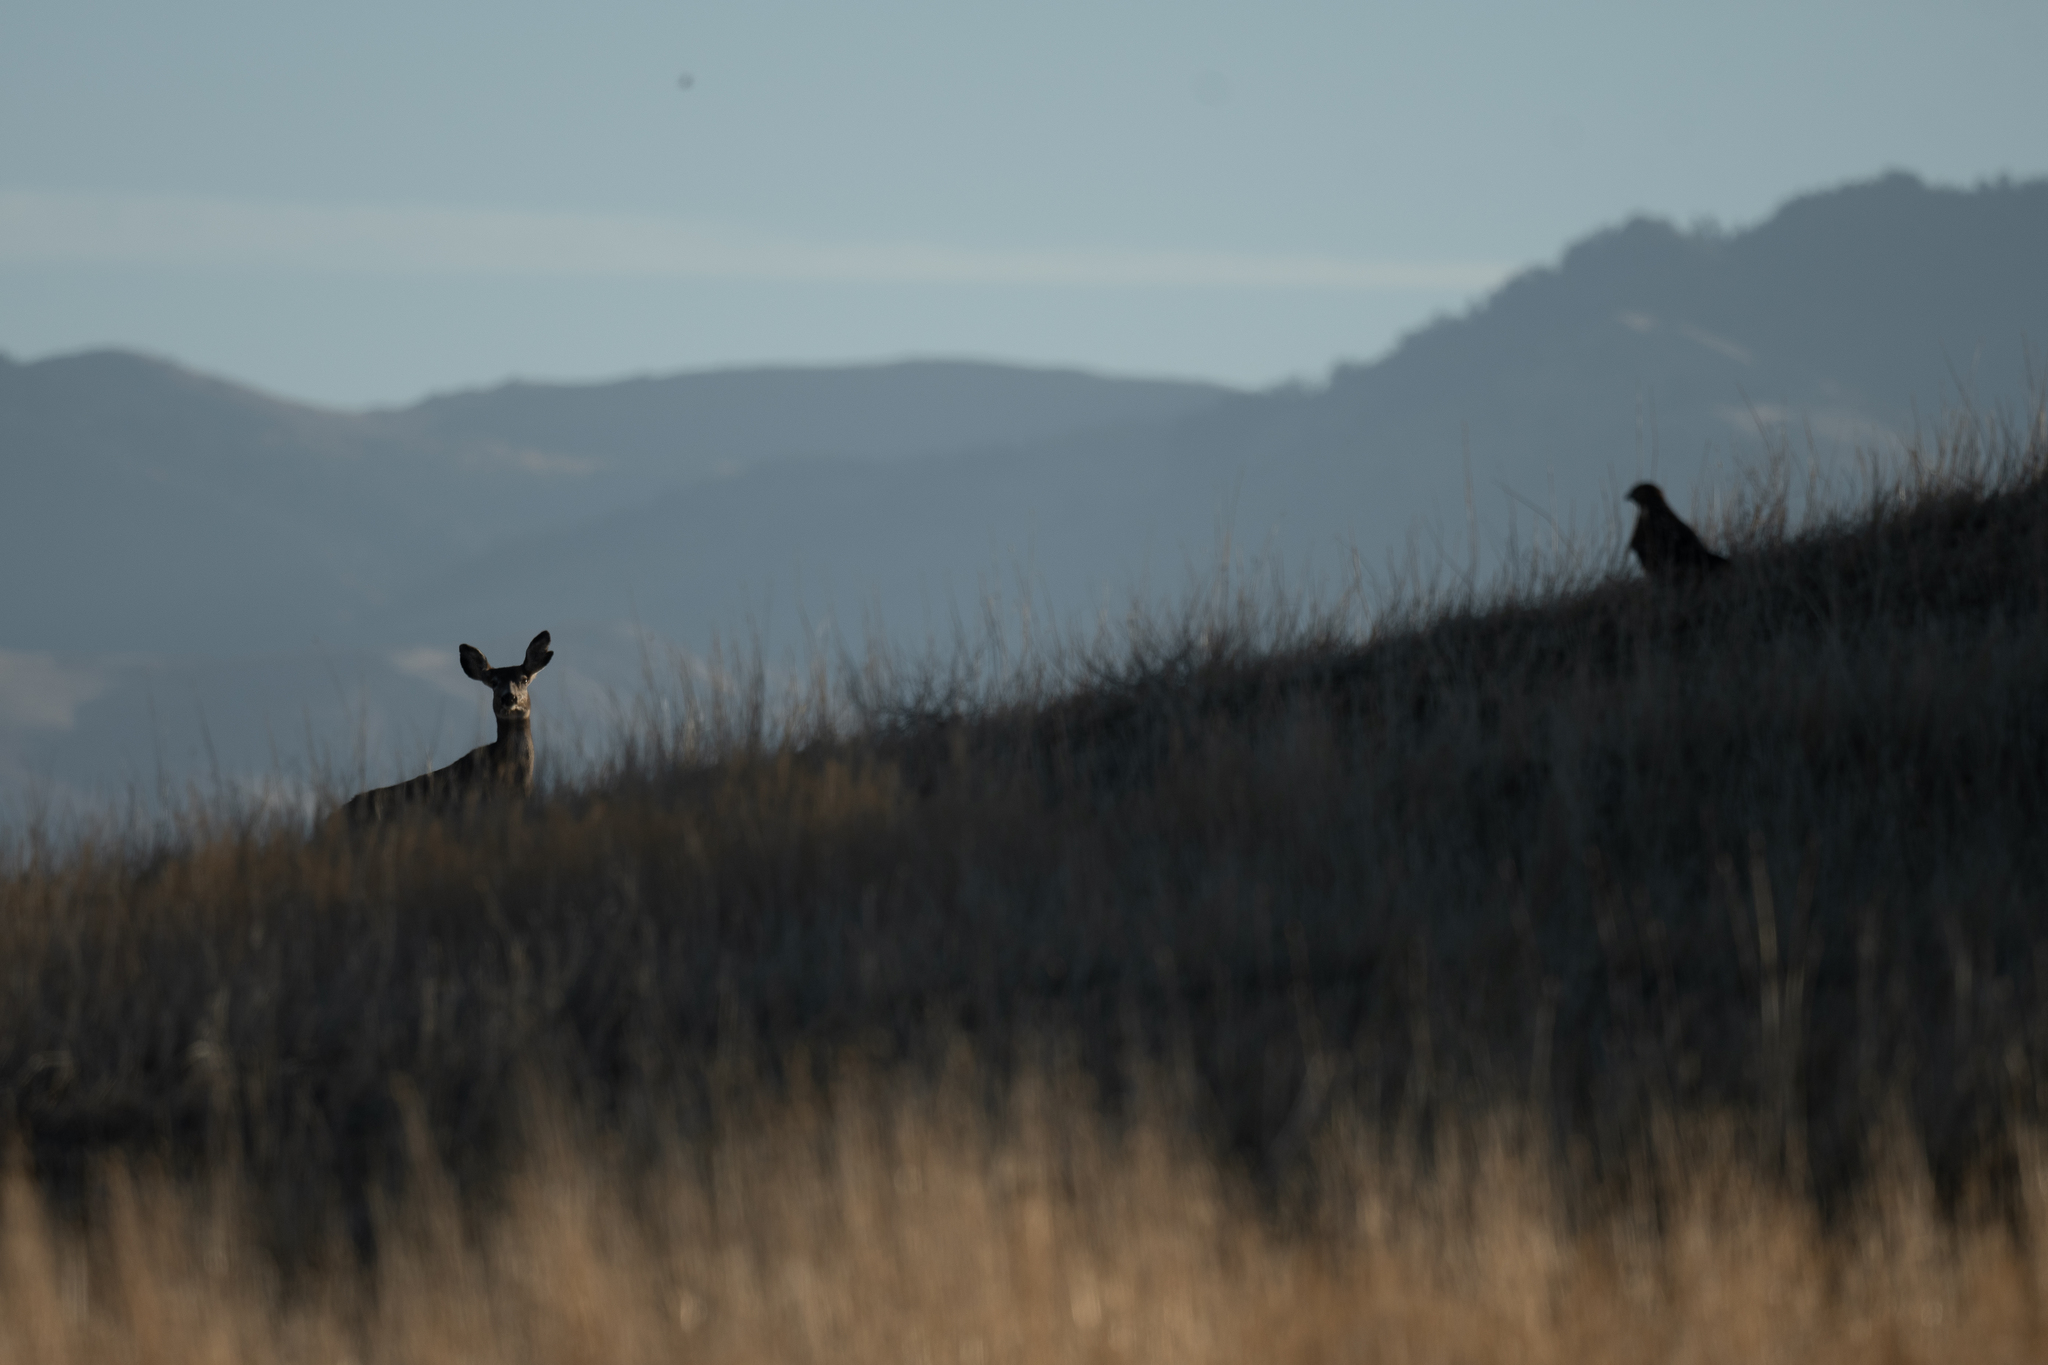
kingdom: Animalia
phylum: Chordata
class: Mammalia
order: Artiodactyla
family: Cervidae
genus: Odocoileus
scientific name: Odocoileus hemionus
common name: Mule deer
